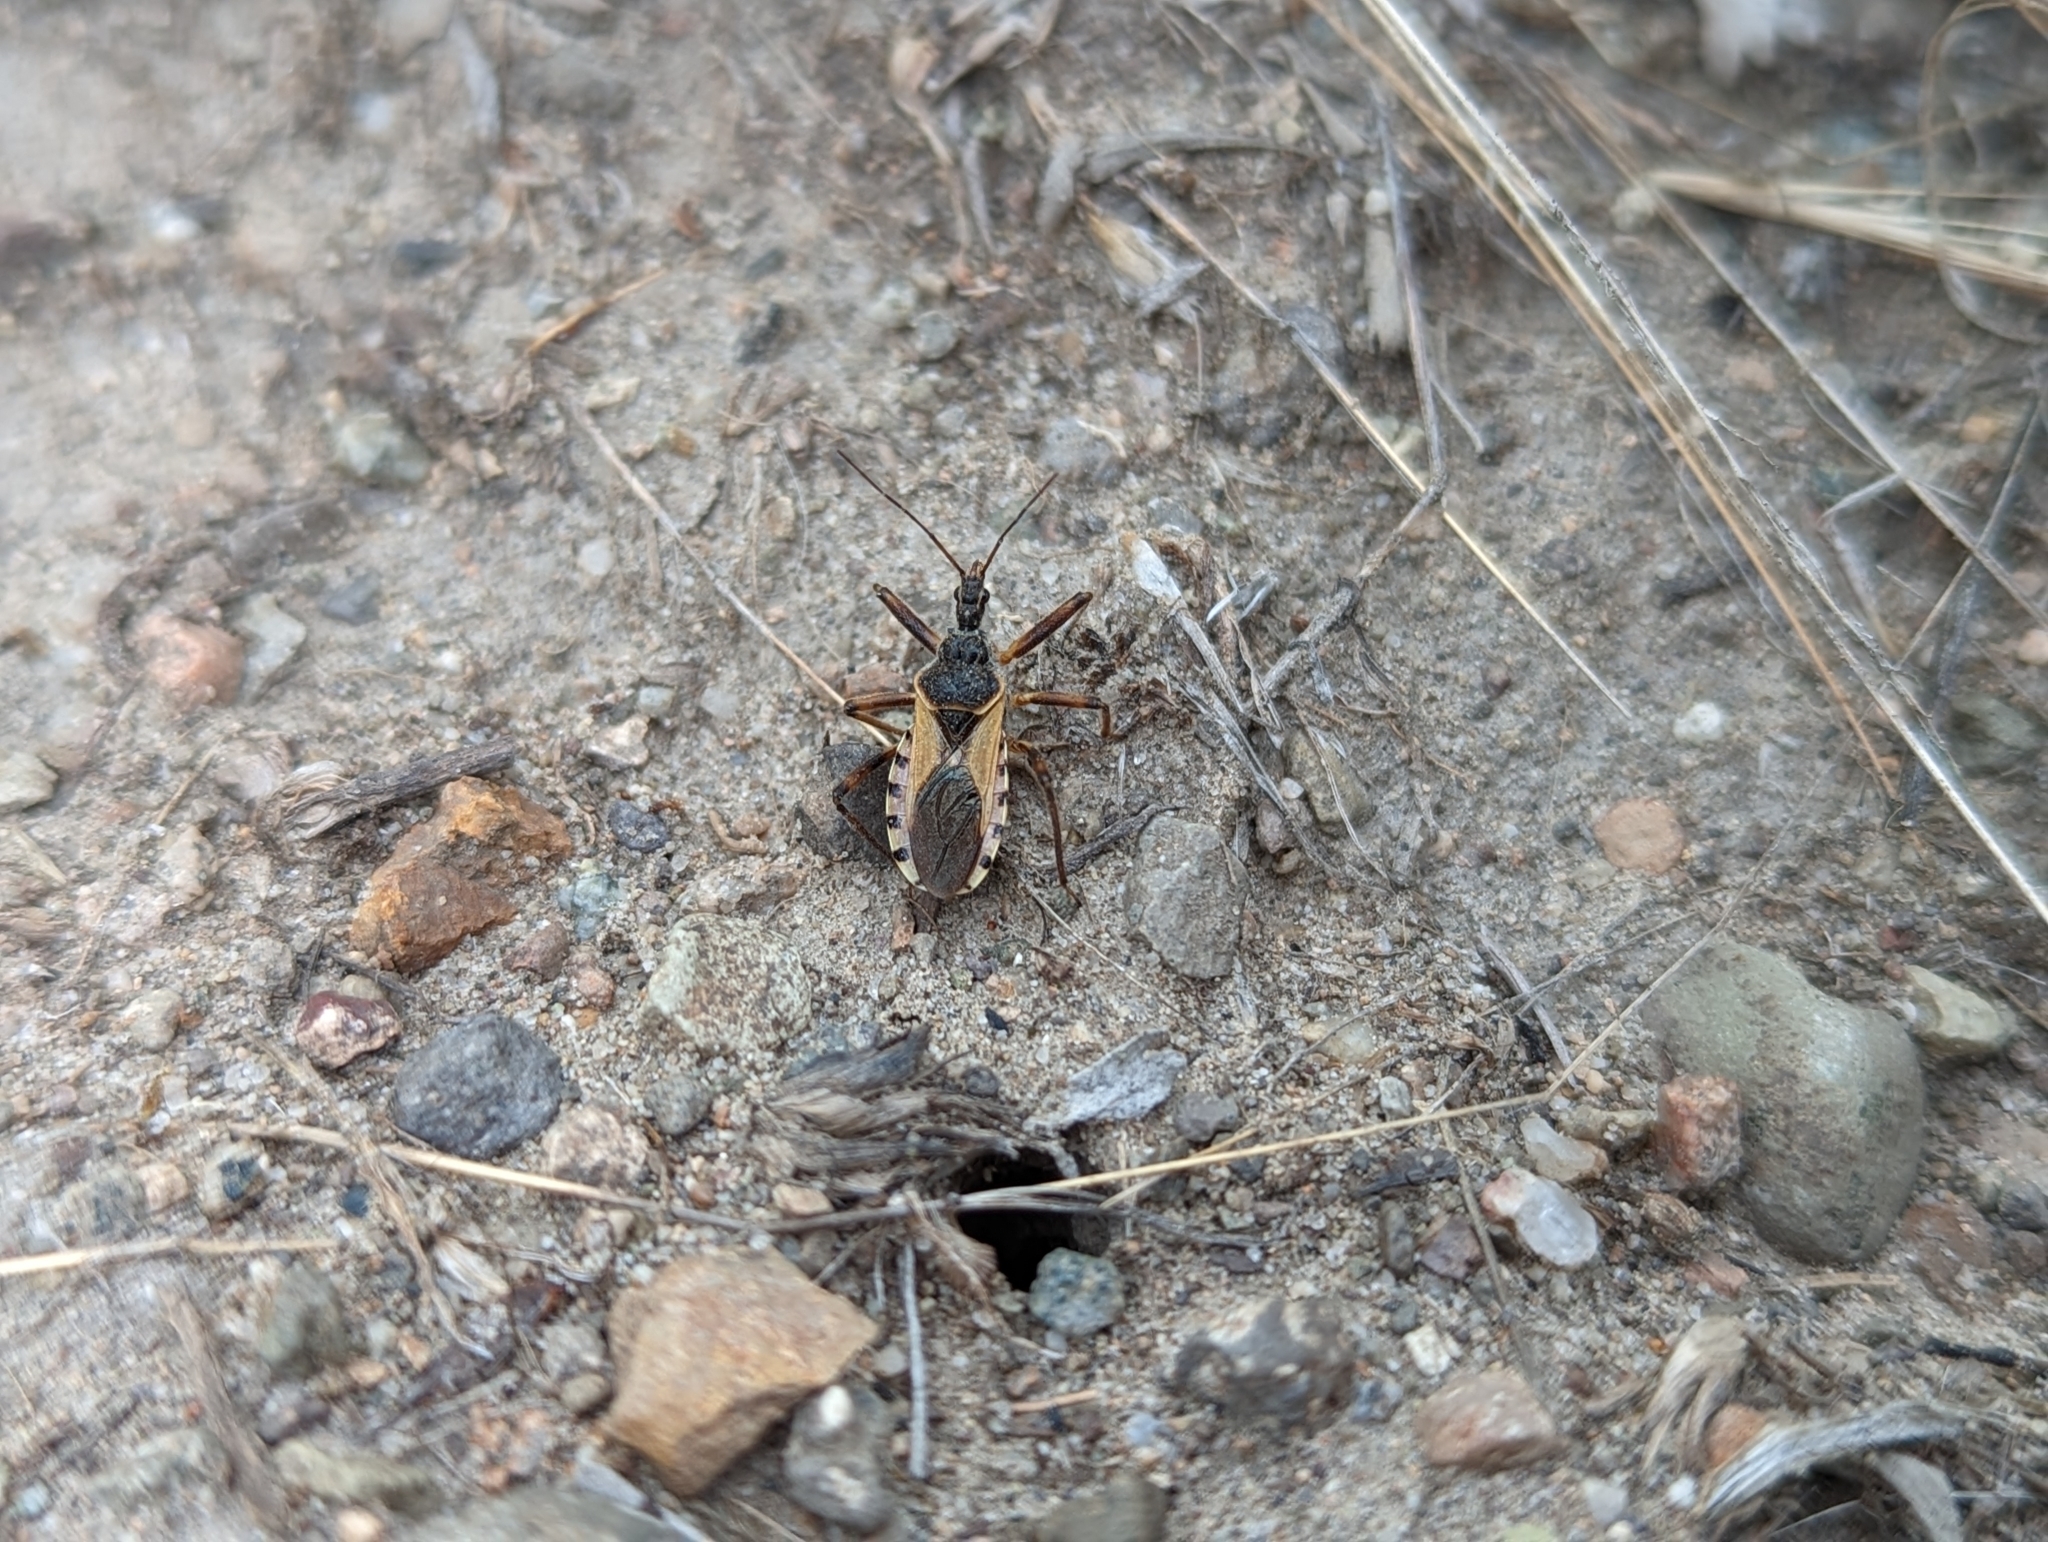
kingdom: Animalia
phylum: Arthropoda
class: Insecta
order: Hemiptera
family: Reduviidae
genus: Rhynocoris
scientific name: Rhynocoris ventralis
